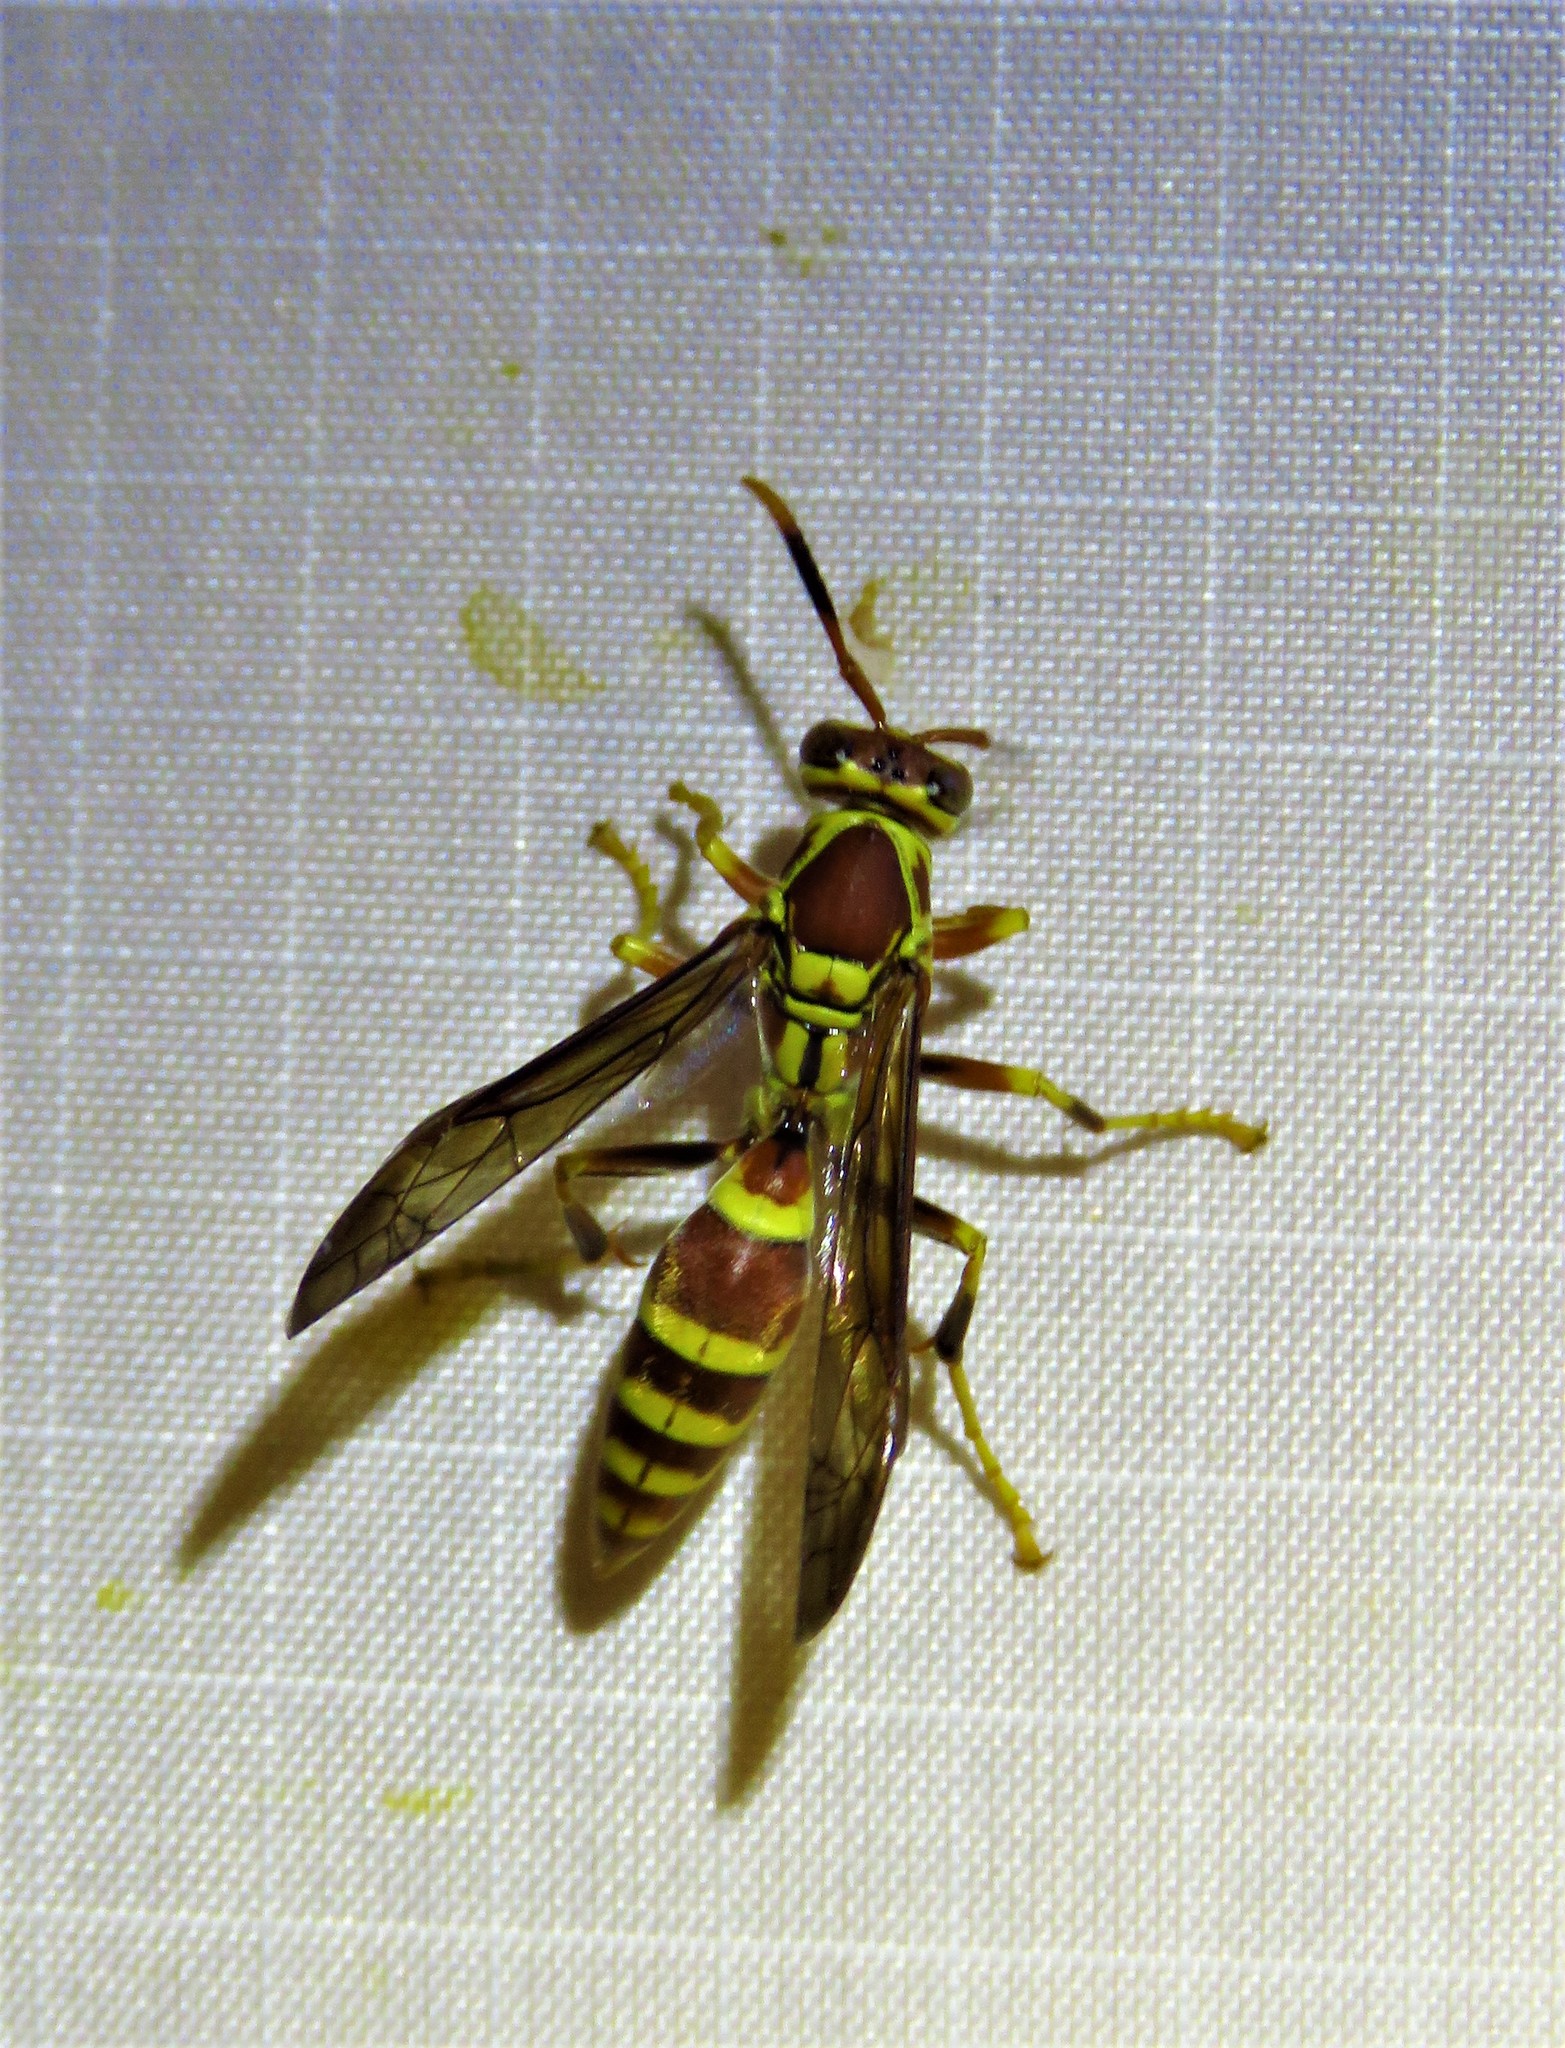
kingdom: Animalia
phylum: Arthropoda
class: Insecta
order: Hymenoptera
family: Eumenidae
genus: Polistes
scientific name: Polistes exclamans
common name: Paper wasp
